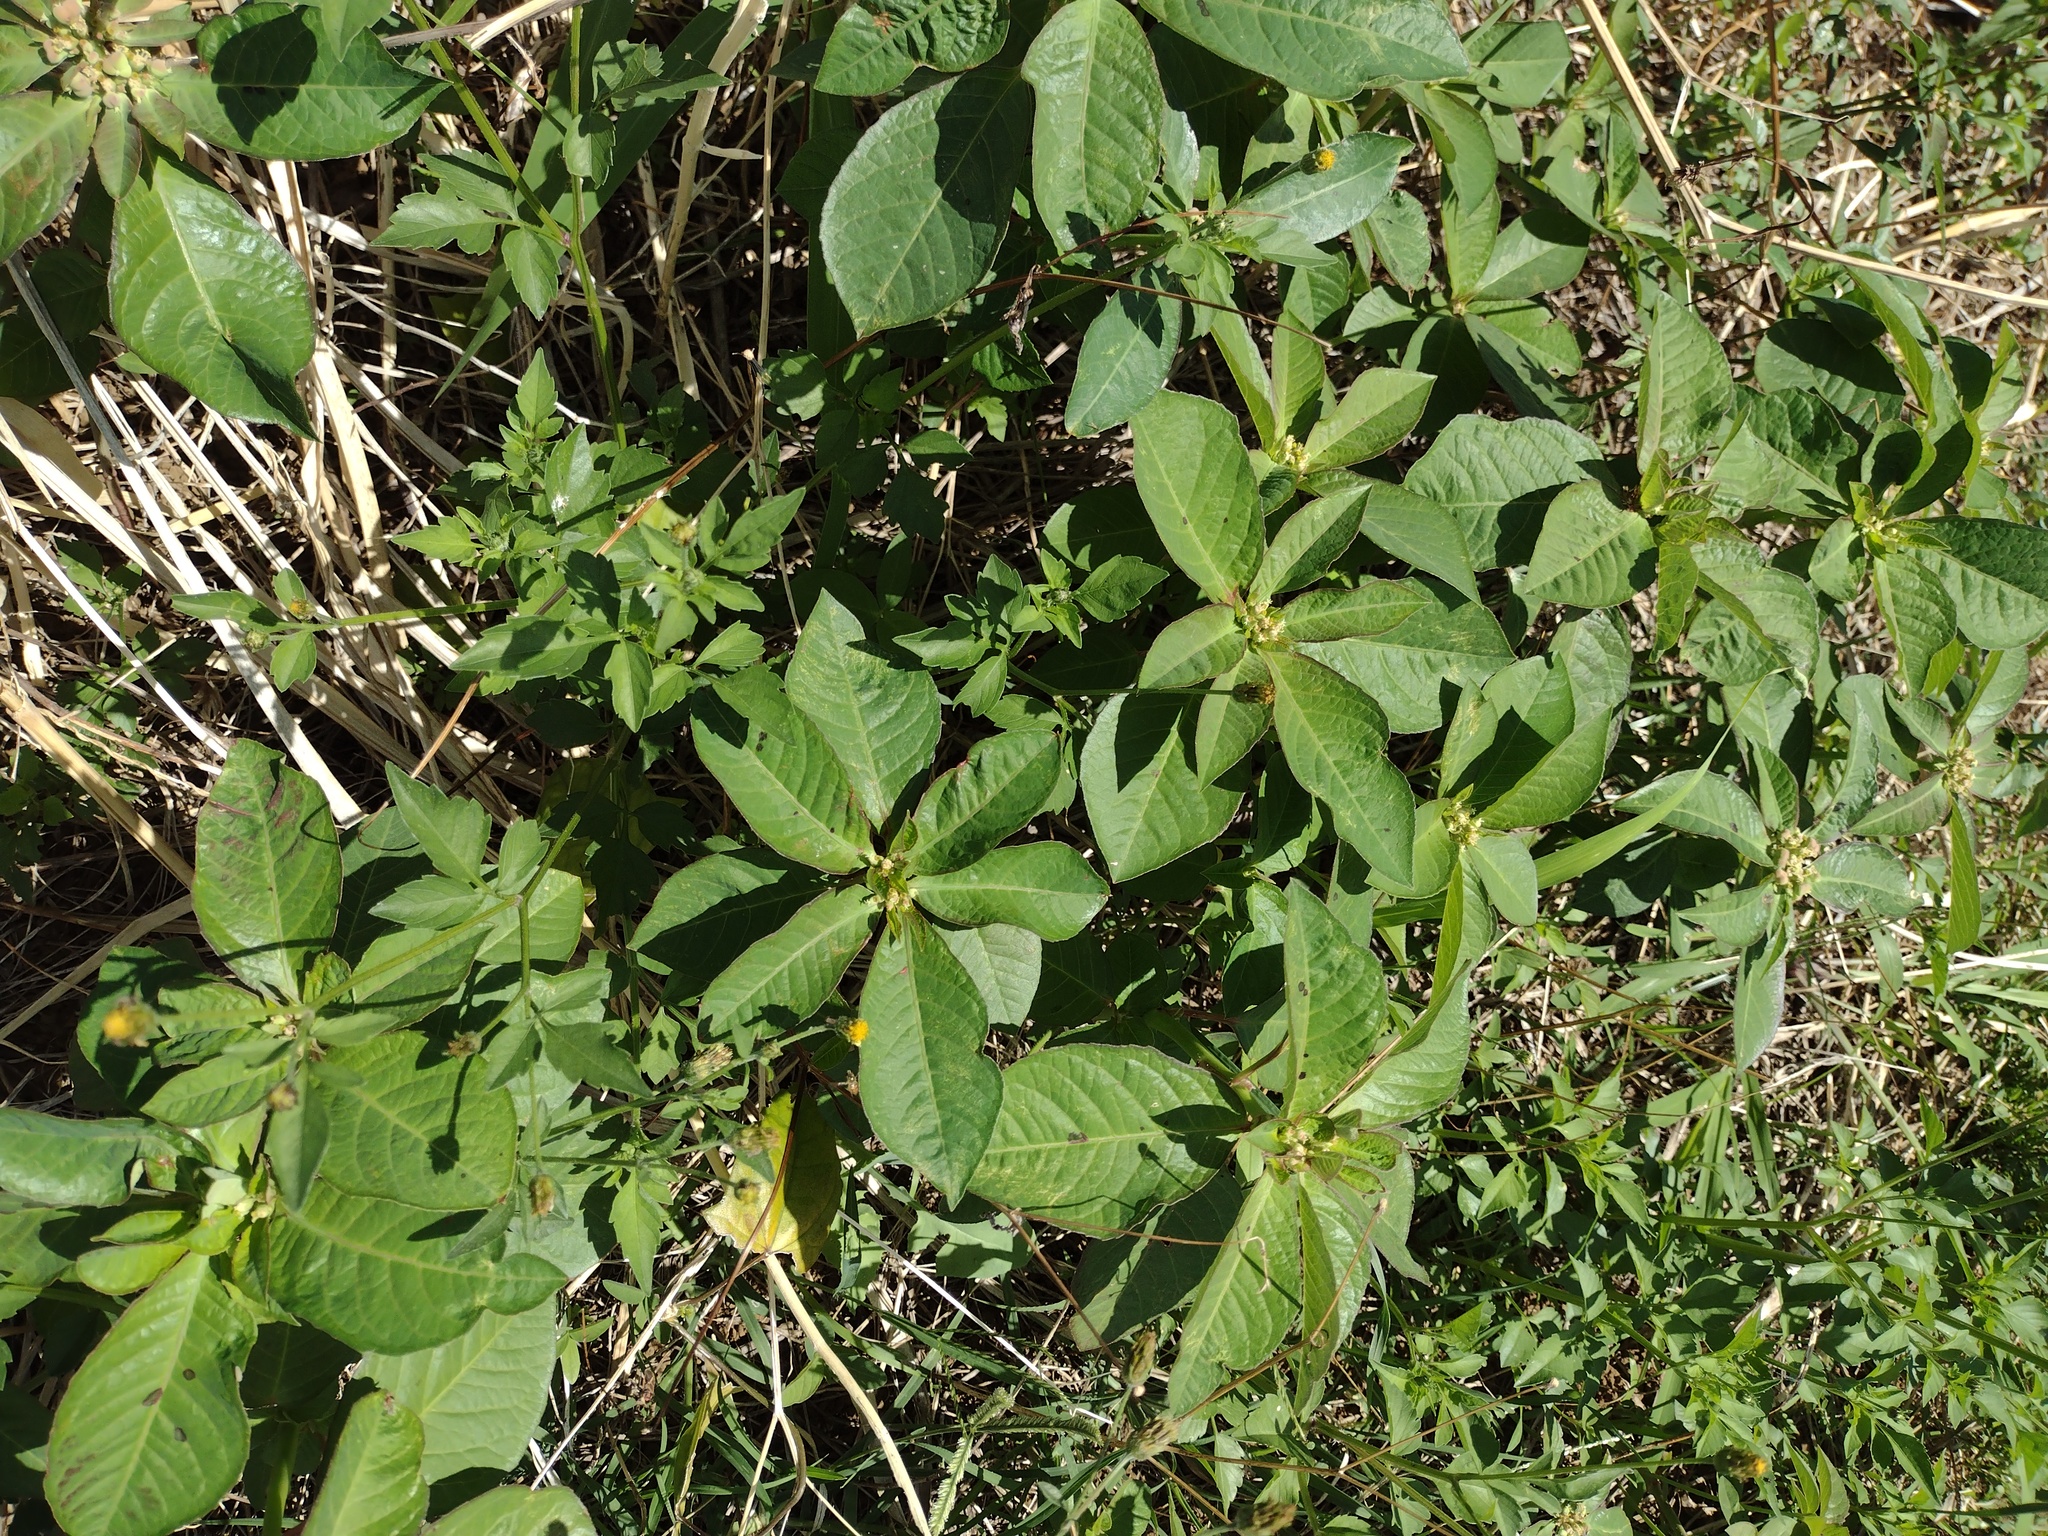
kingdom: Plantae
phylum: Tracheophyta
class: Magnoliopsida
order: Malpighiales
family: Euphorbiaceae
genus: Euphorbia
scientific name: Euphorbia heterophylla
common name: Mexican fireplant
